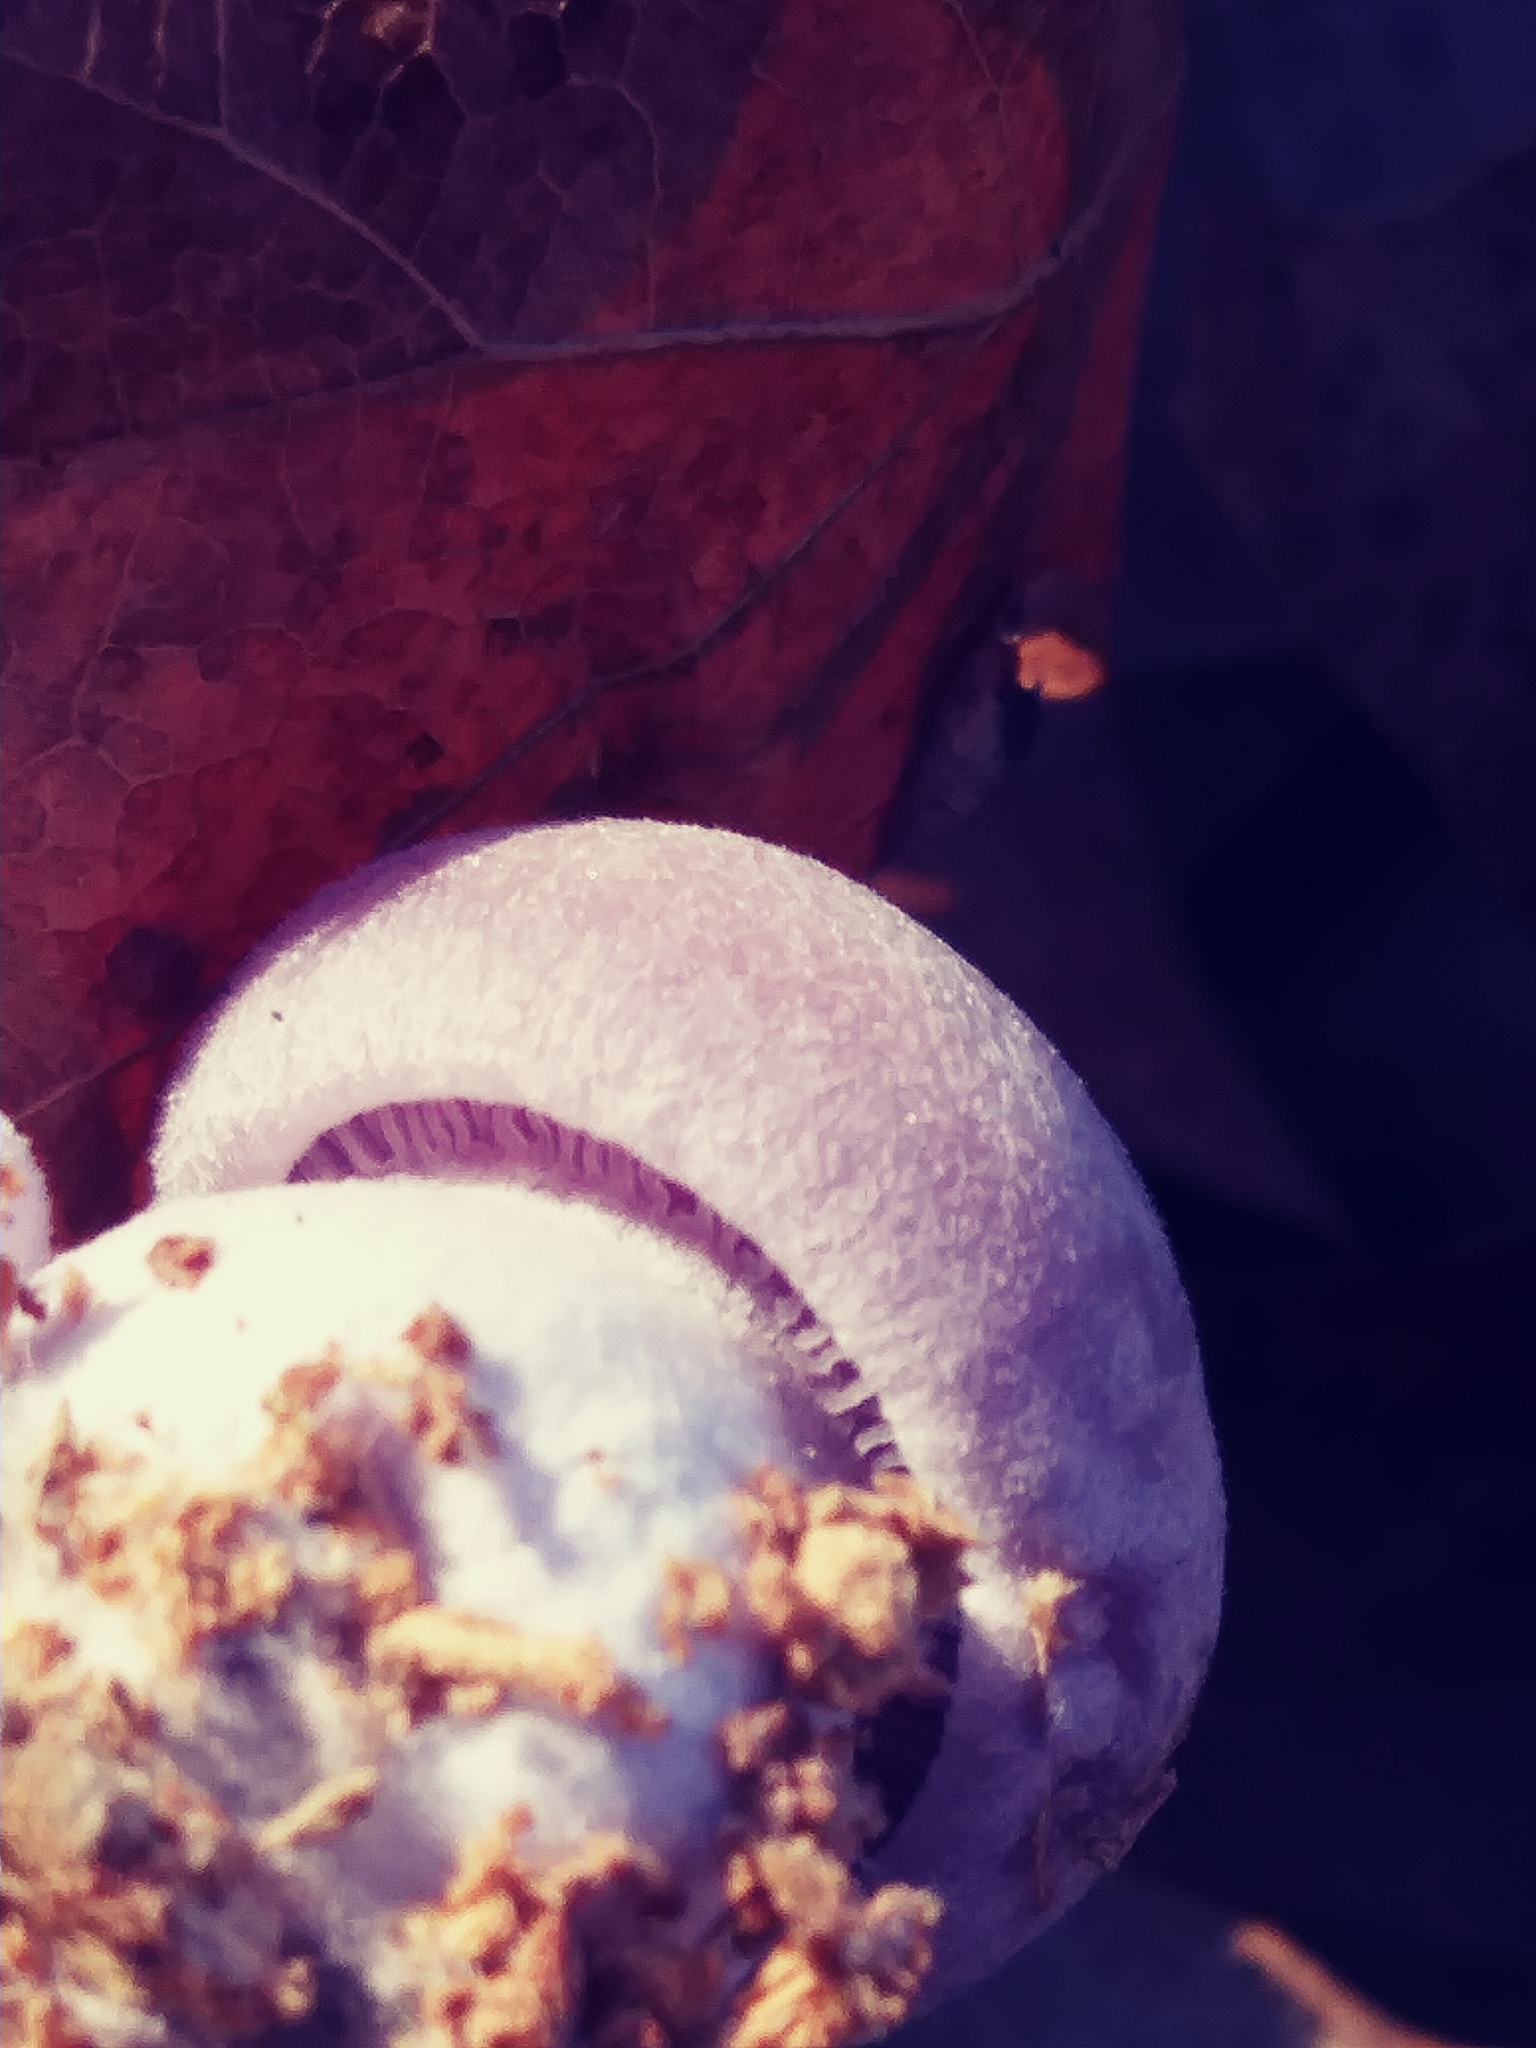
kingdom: Fungi
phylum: Basidiomycota
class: Agaricomycetes
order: Agaricales
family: Tricholomataceae
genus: Collybia
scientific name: Collybia
